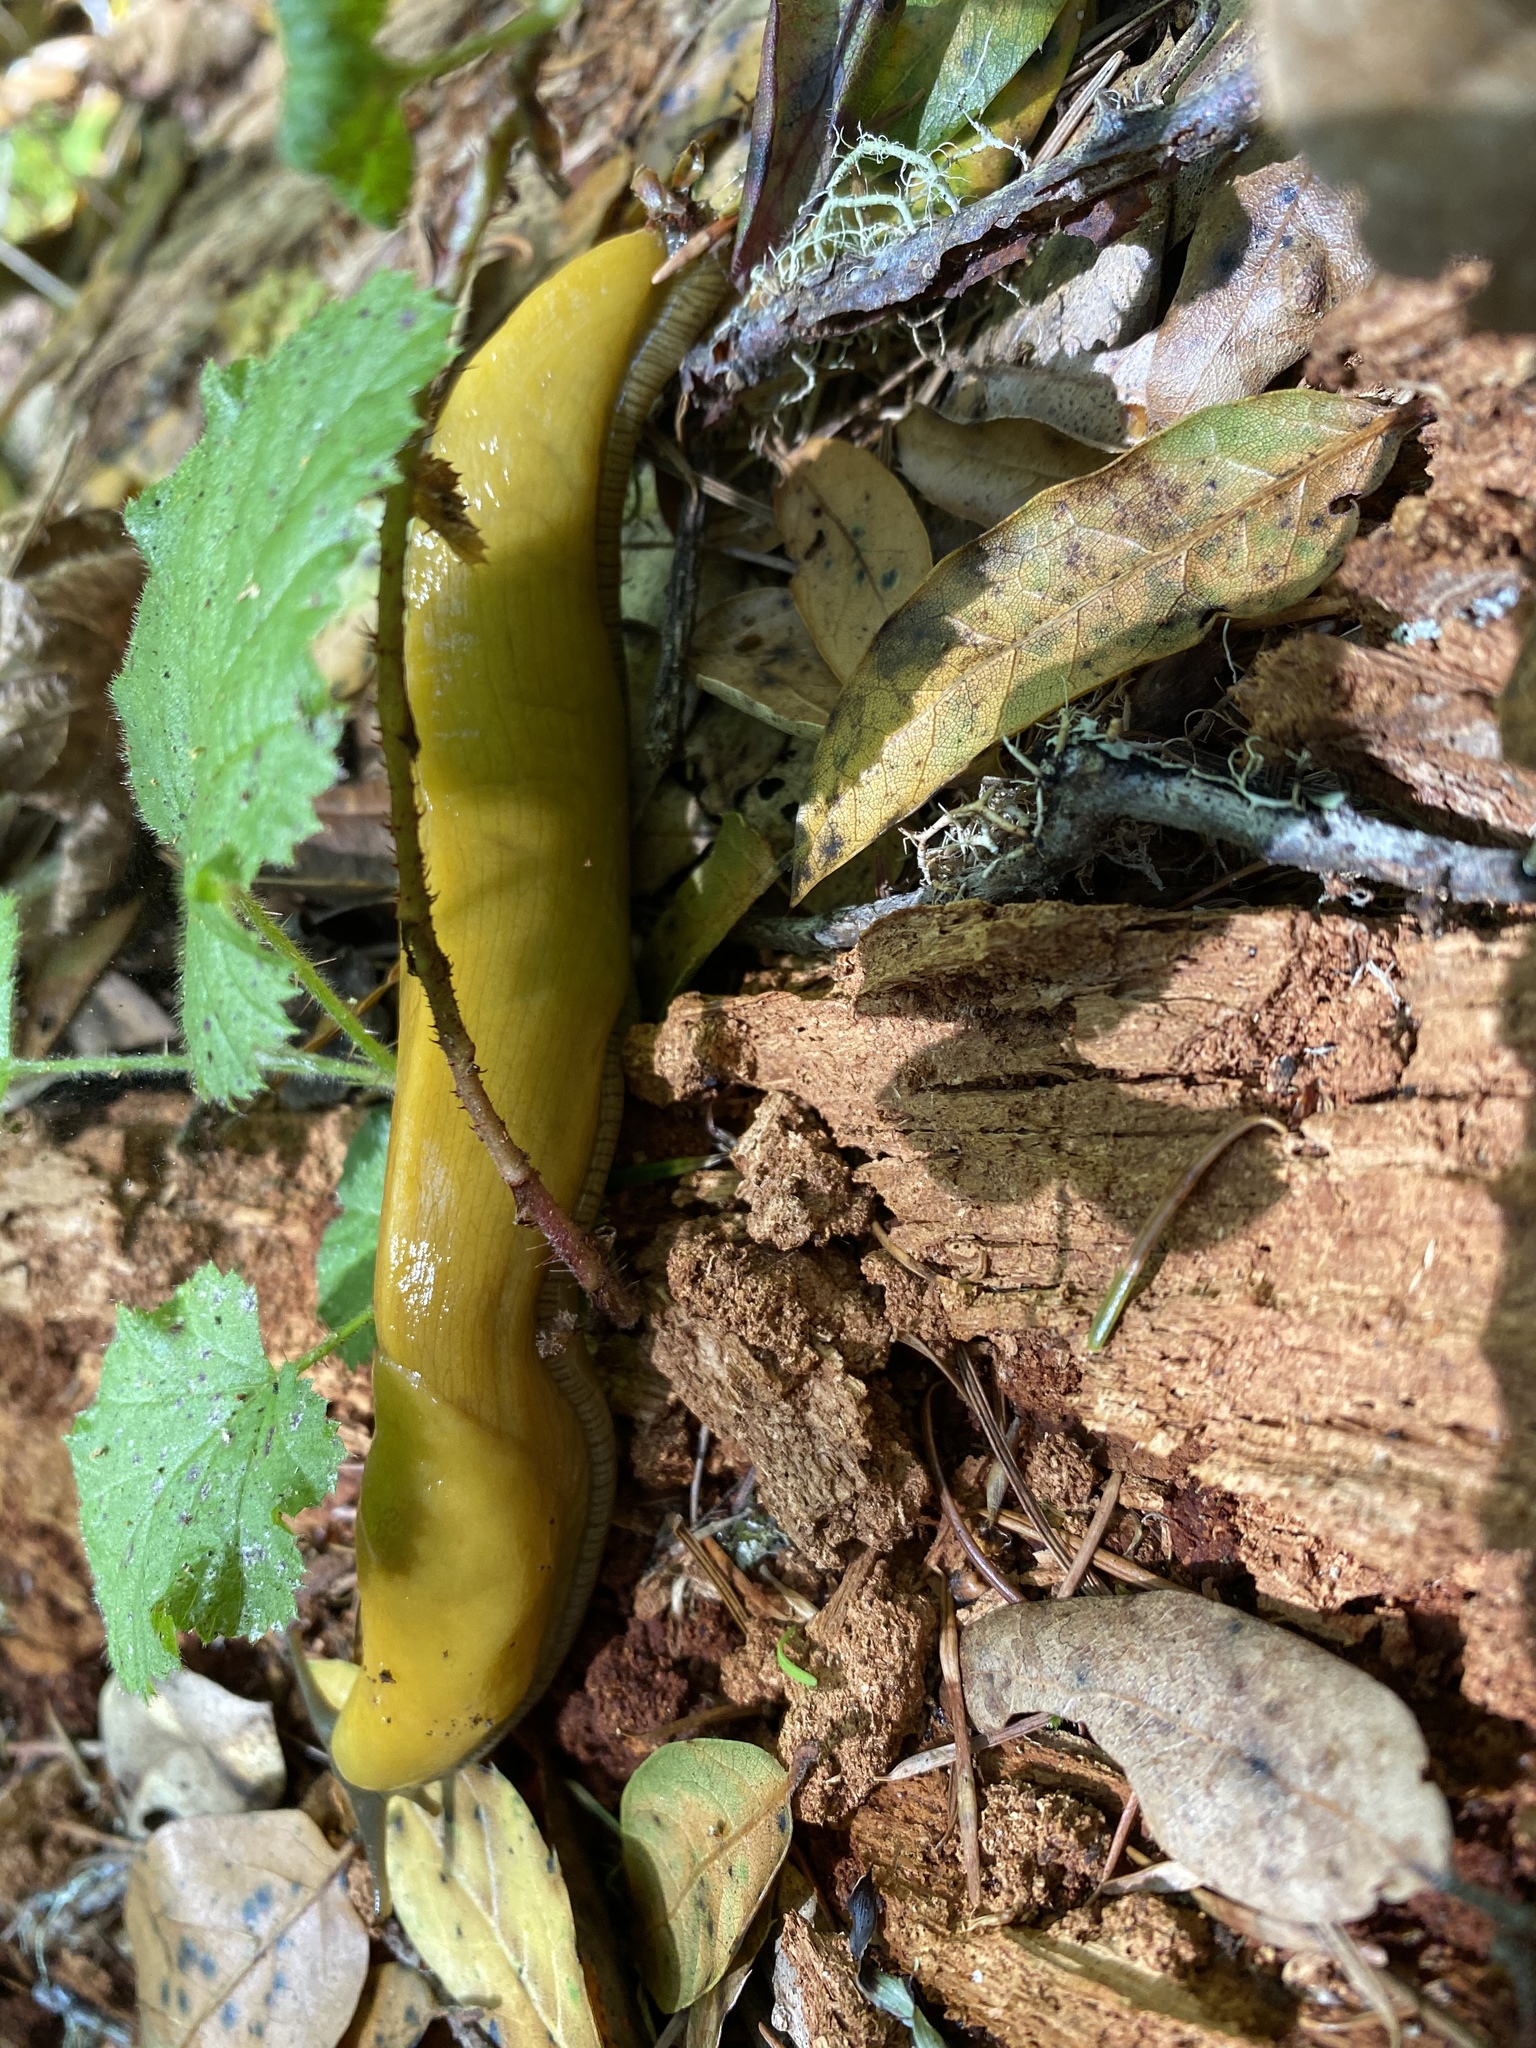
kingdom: Animalia
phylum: Mollusca
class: Gastropoda
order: Stylommatophora
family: Ariolimacidae
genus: Ariolimax
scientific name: Ariolimax californicus
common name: California banana slug
